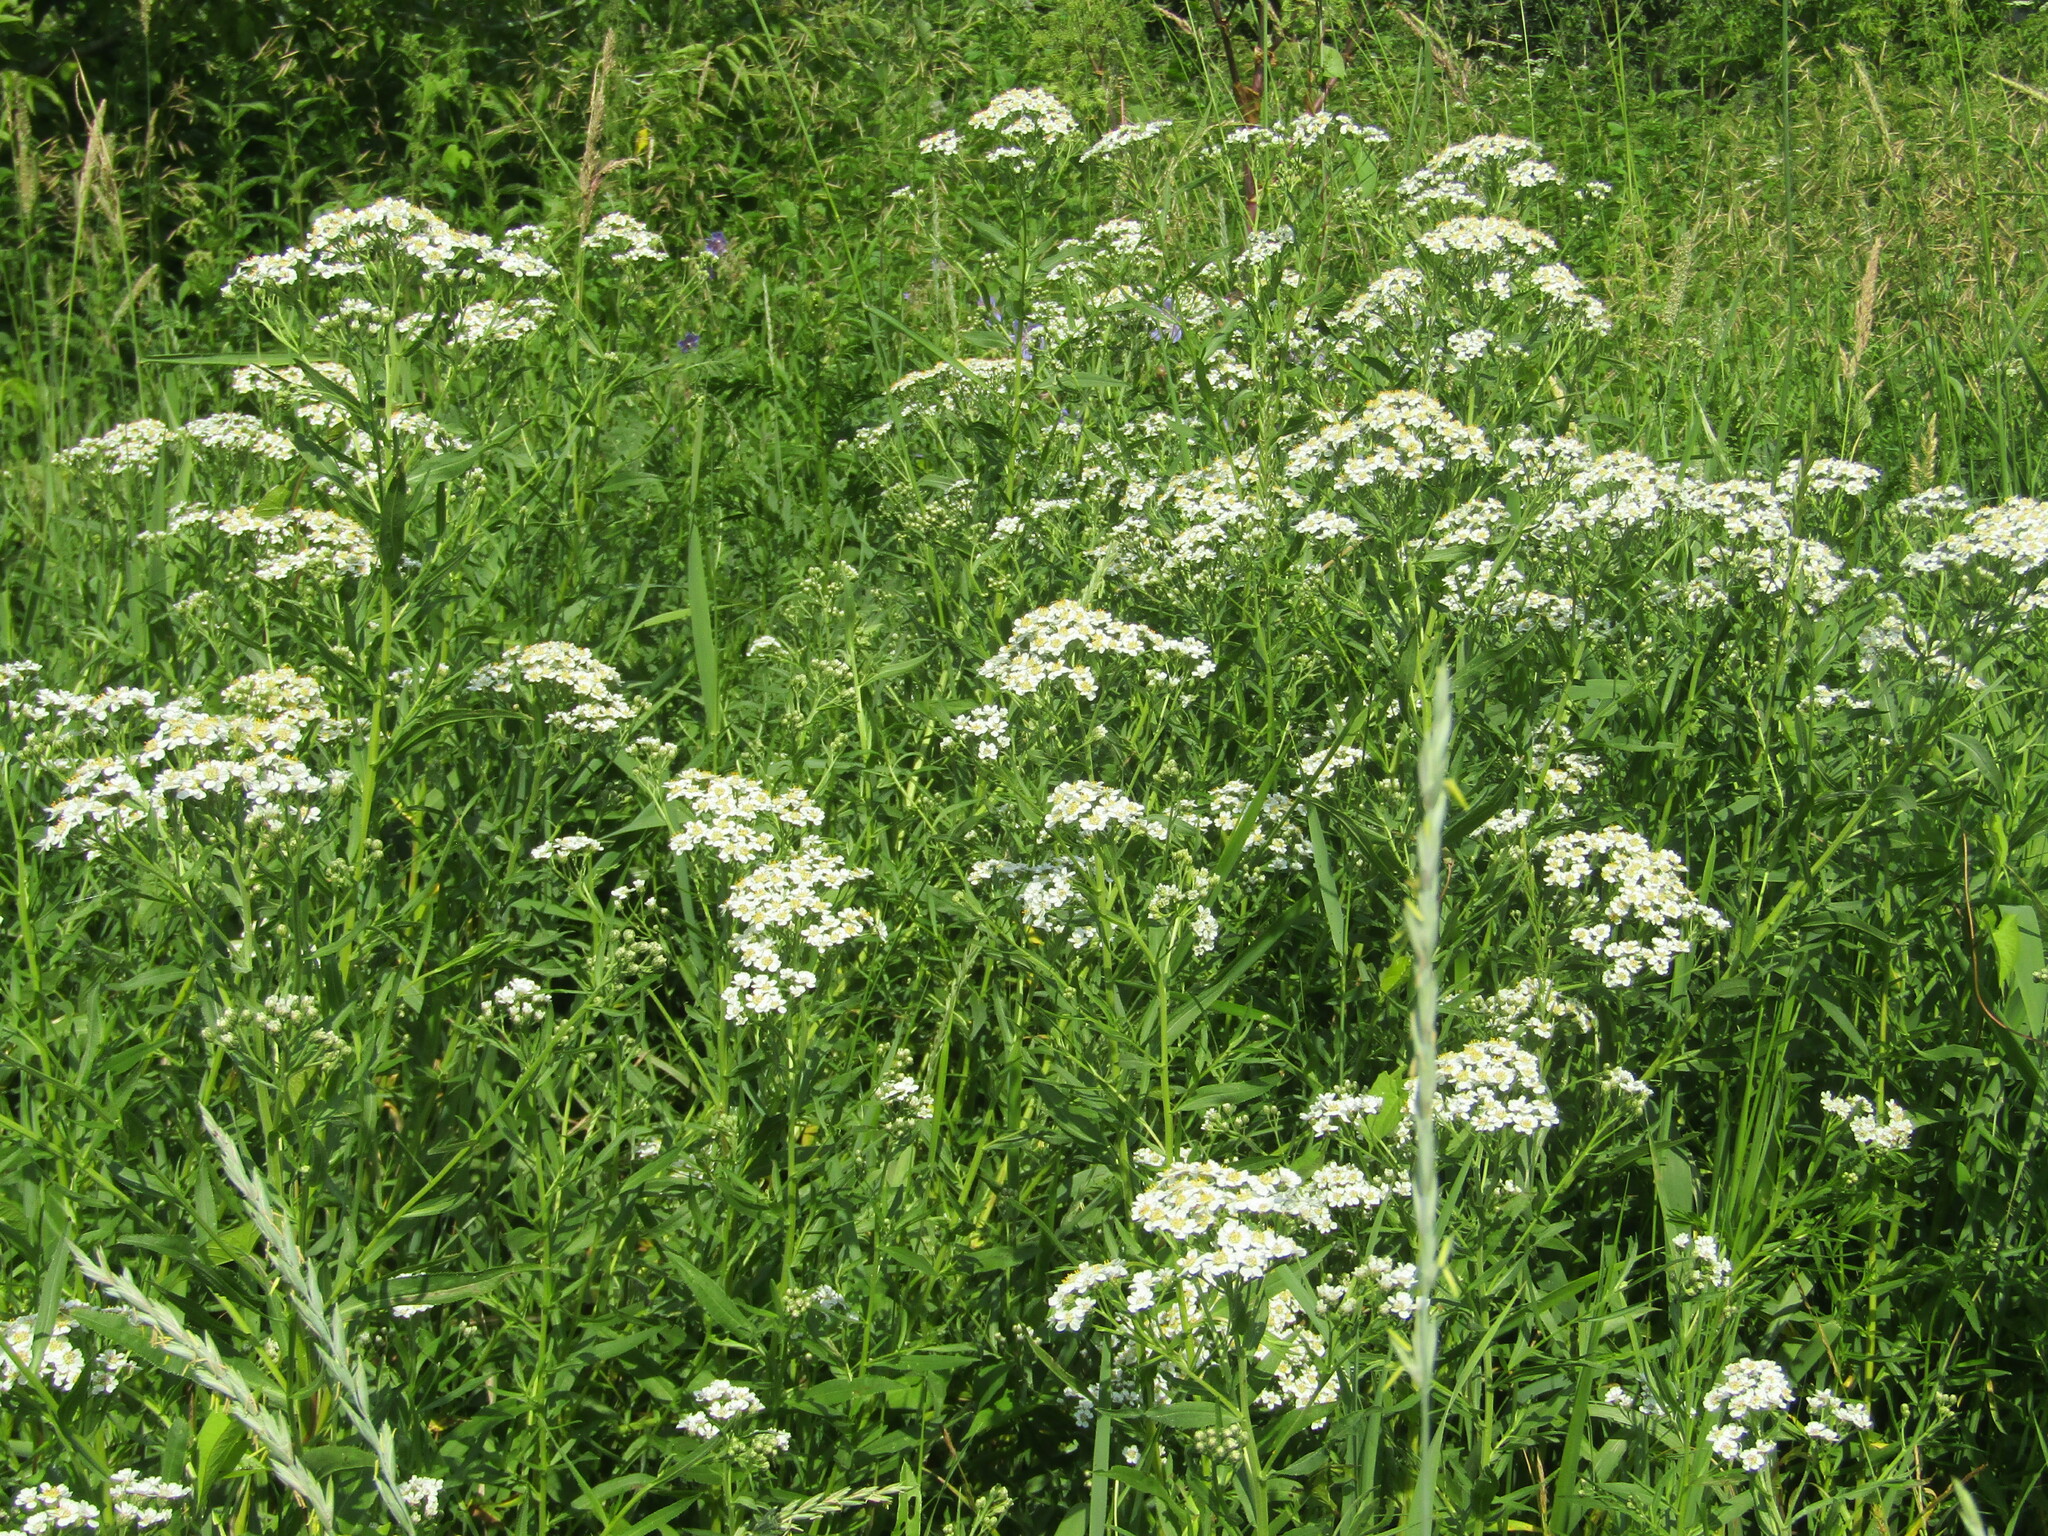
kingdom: Plantae
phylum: Tracheophyta
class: Magnoliopsida
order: Asterales
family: Asteraceae
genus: Achillea
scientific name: Achillea salicifolia
